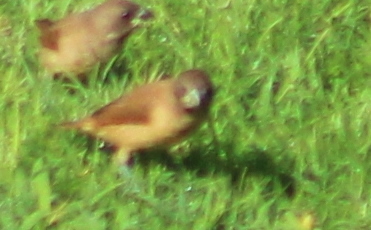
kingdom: Animalia
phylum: Chordata
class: Aves
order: Passeriformes
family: Estrildidae
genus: Lonchura
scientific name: Lonchura punctulata
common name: Scaly-breasted munia
